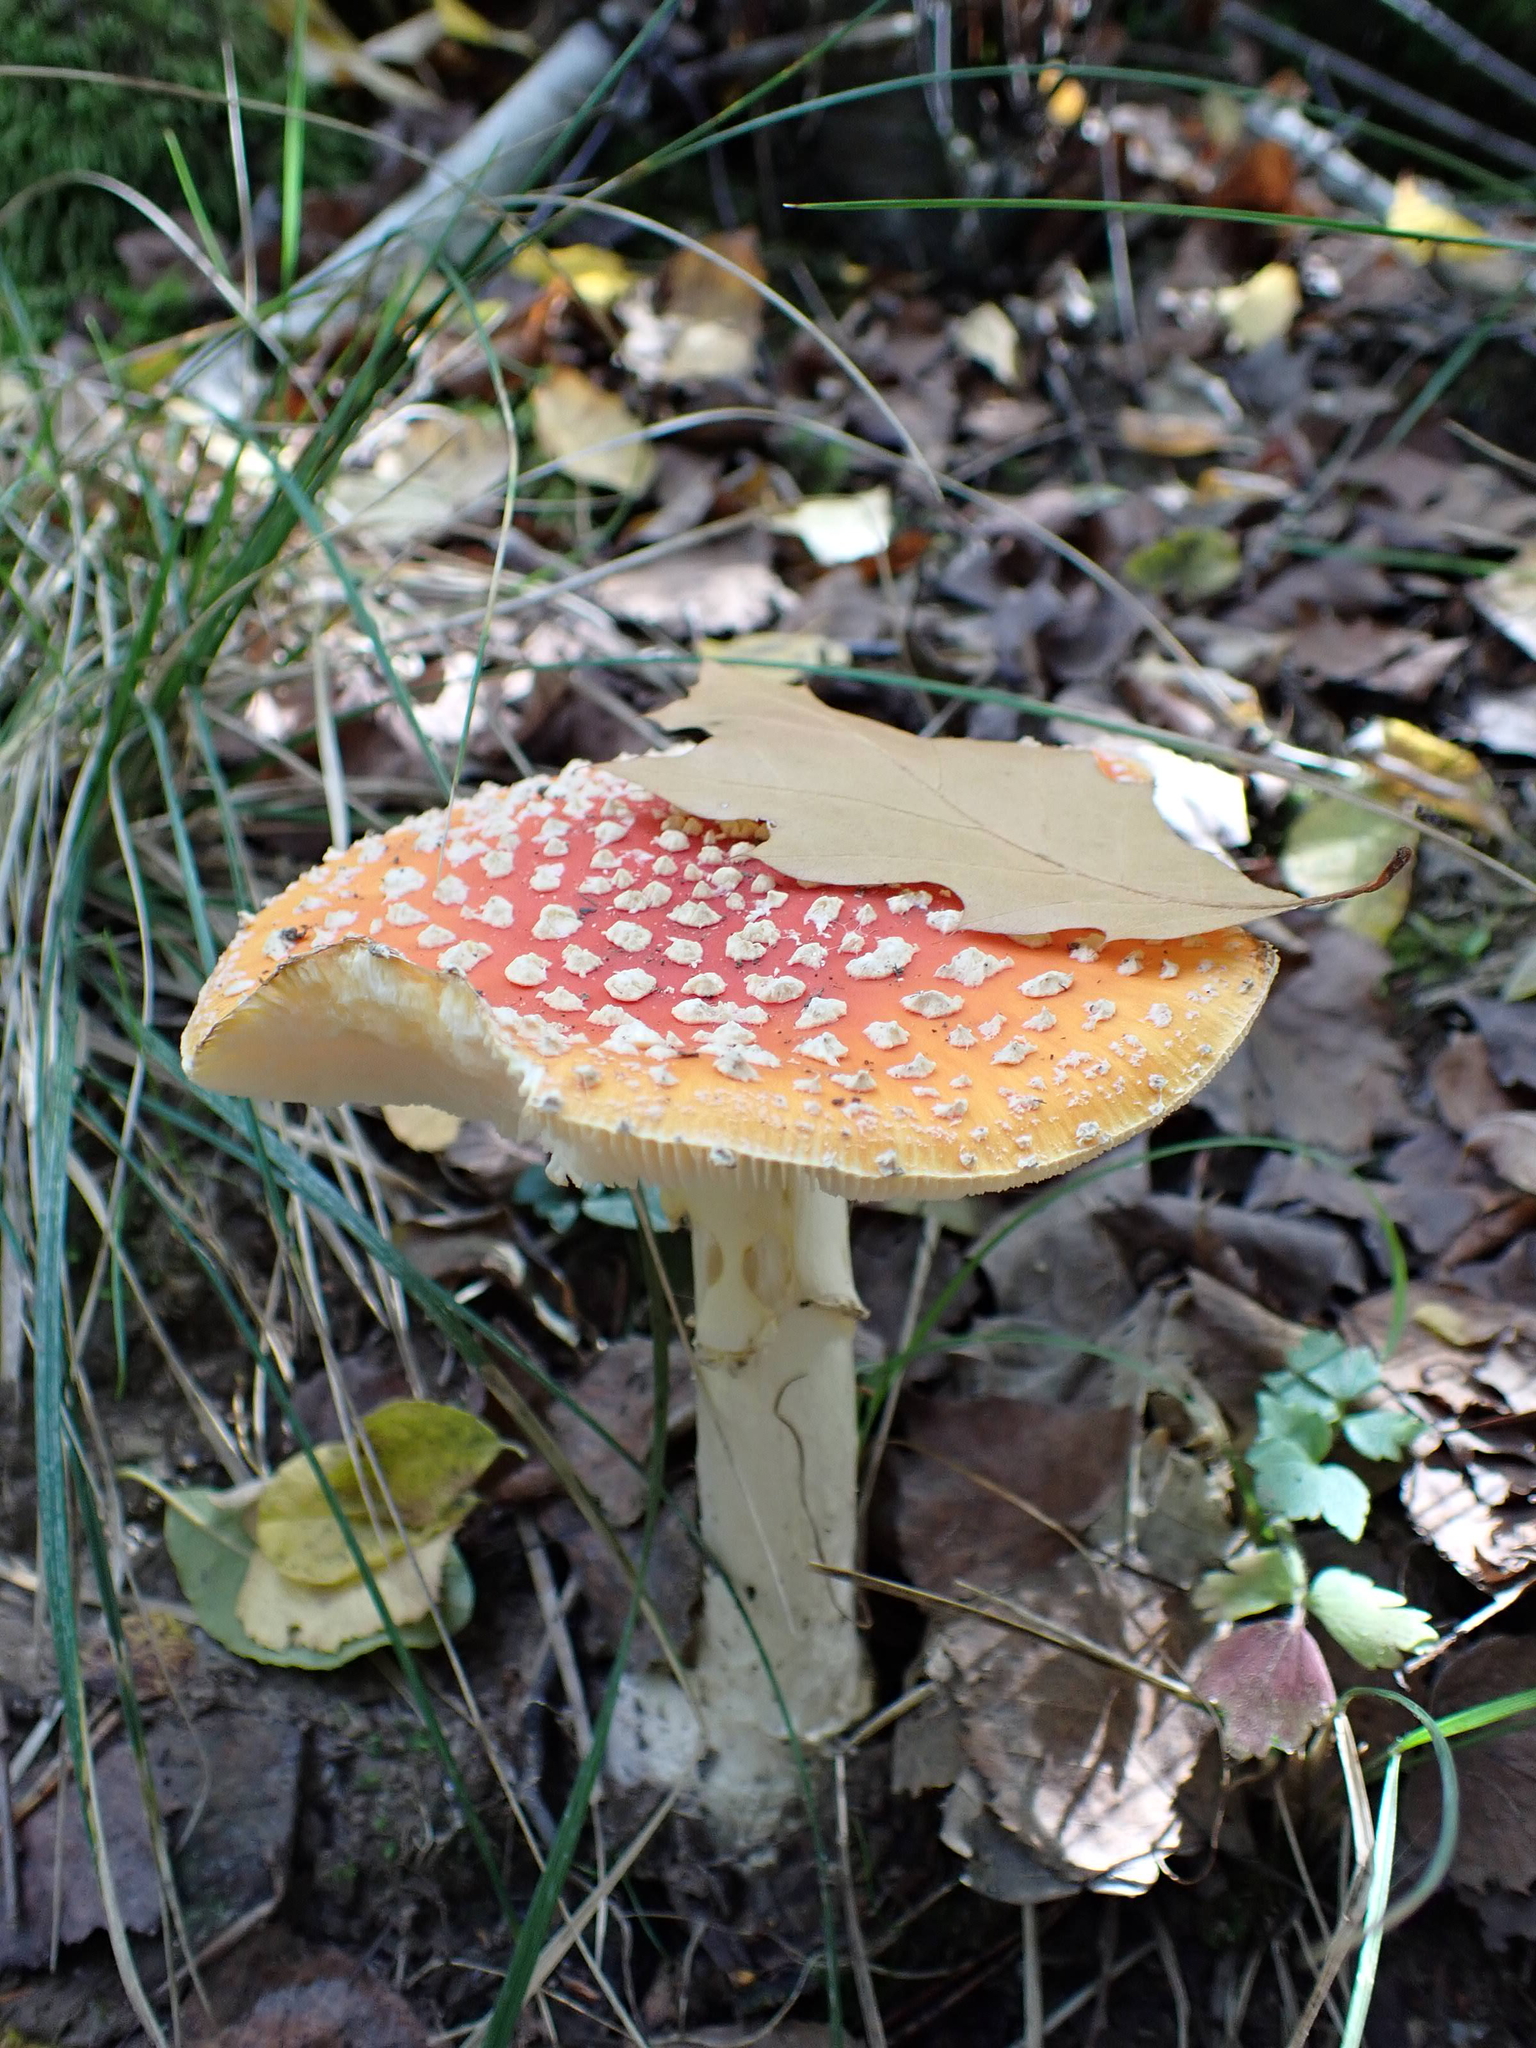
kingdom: Fungi
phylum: Basidiomycota
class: Agaricomycetes
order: Agaricales
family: Amanitaceae
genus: Amanita
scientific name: Amanita muscaria
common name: Fly agaric
